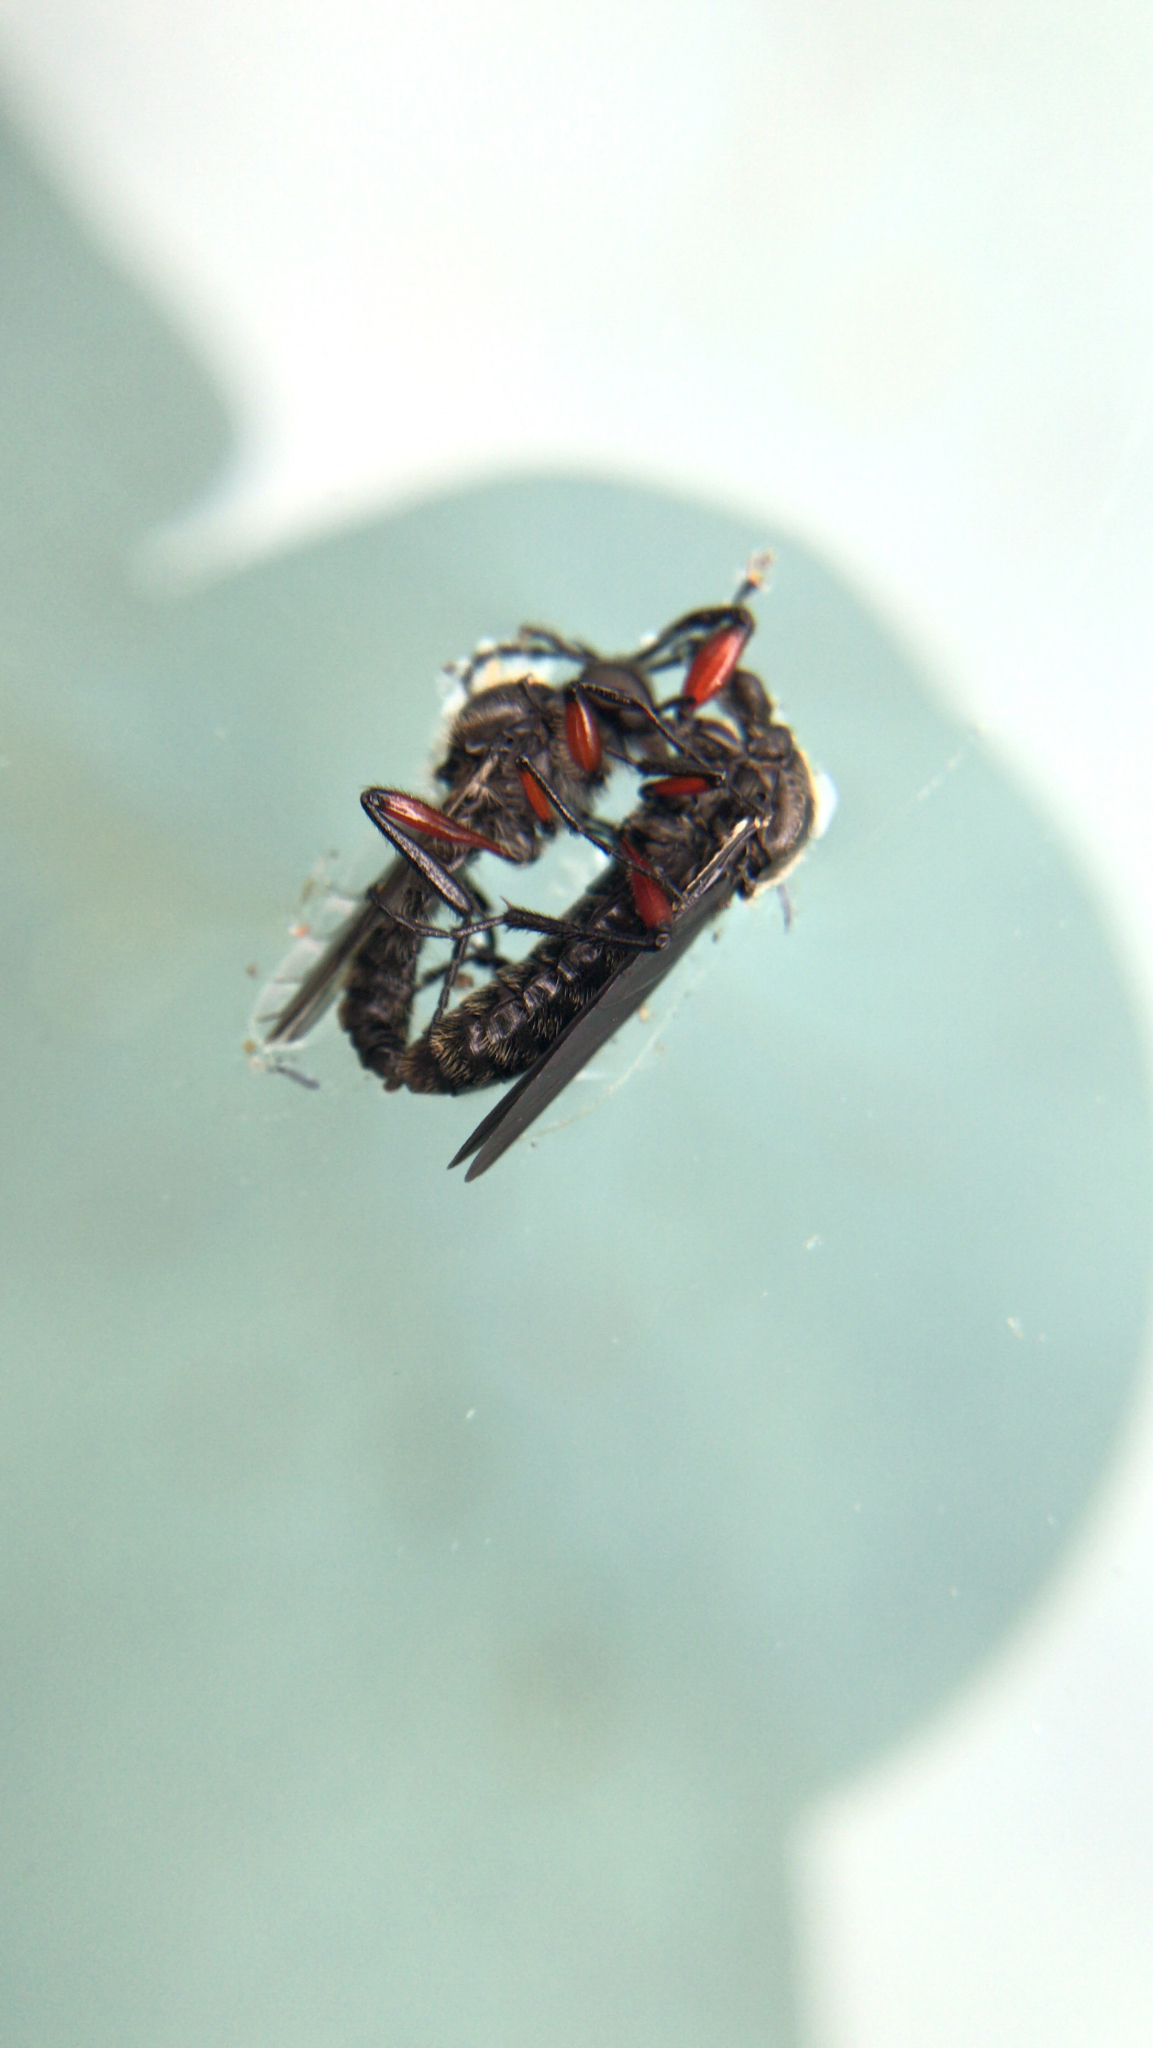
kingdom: Animalia
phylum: Arthropoda
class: Insecta
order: Diptera
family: Bibionidae
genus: Bibio
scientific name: Bibio femoratus
